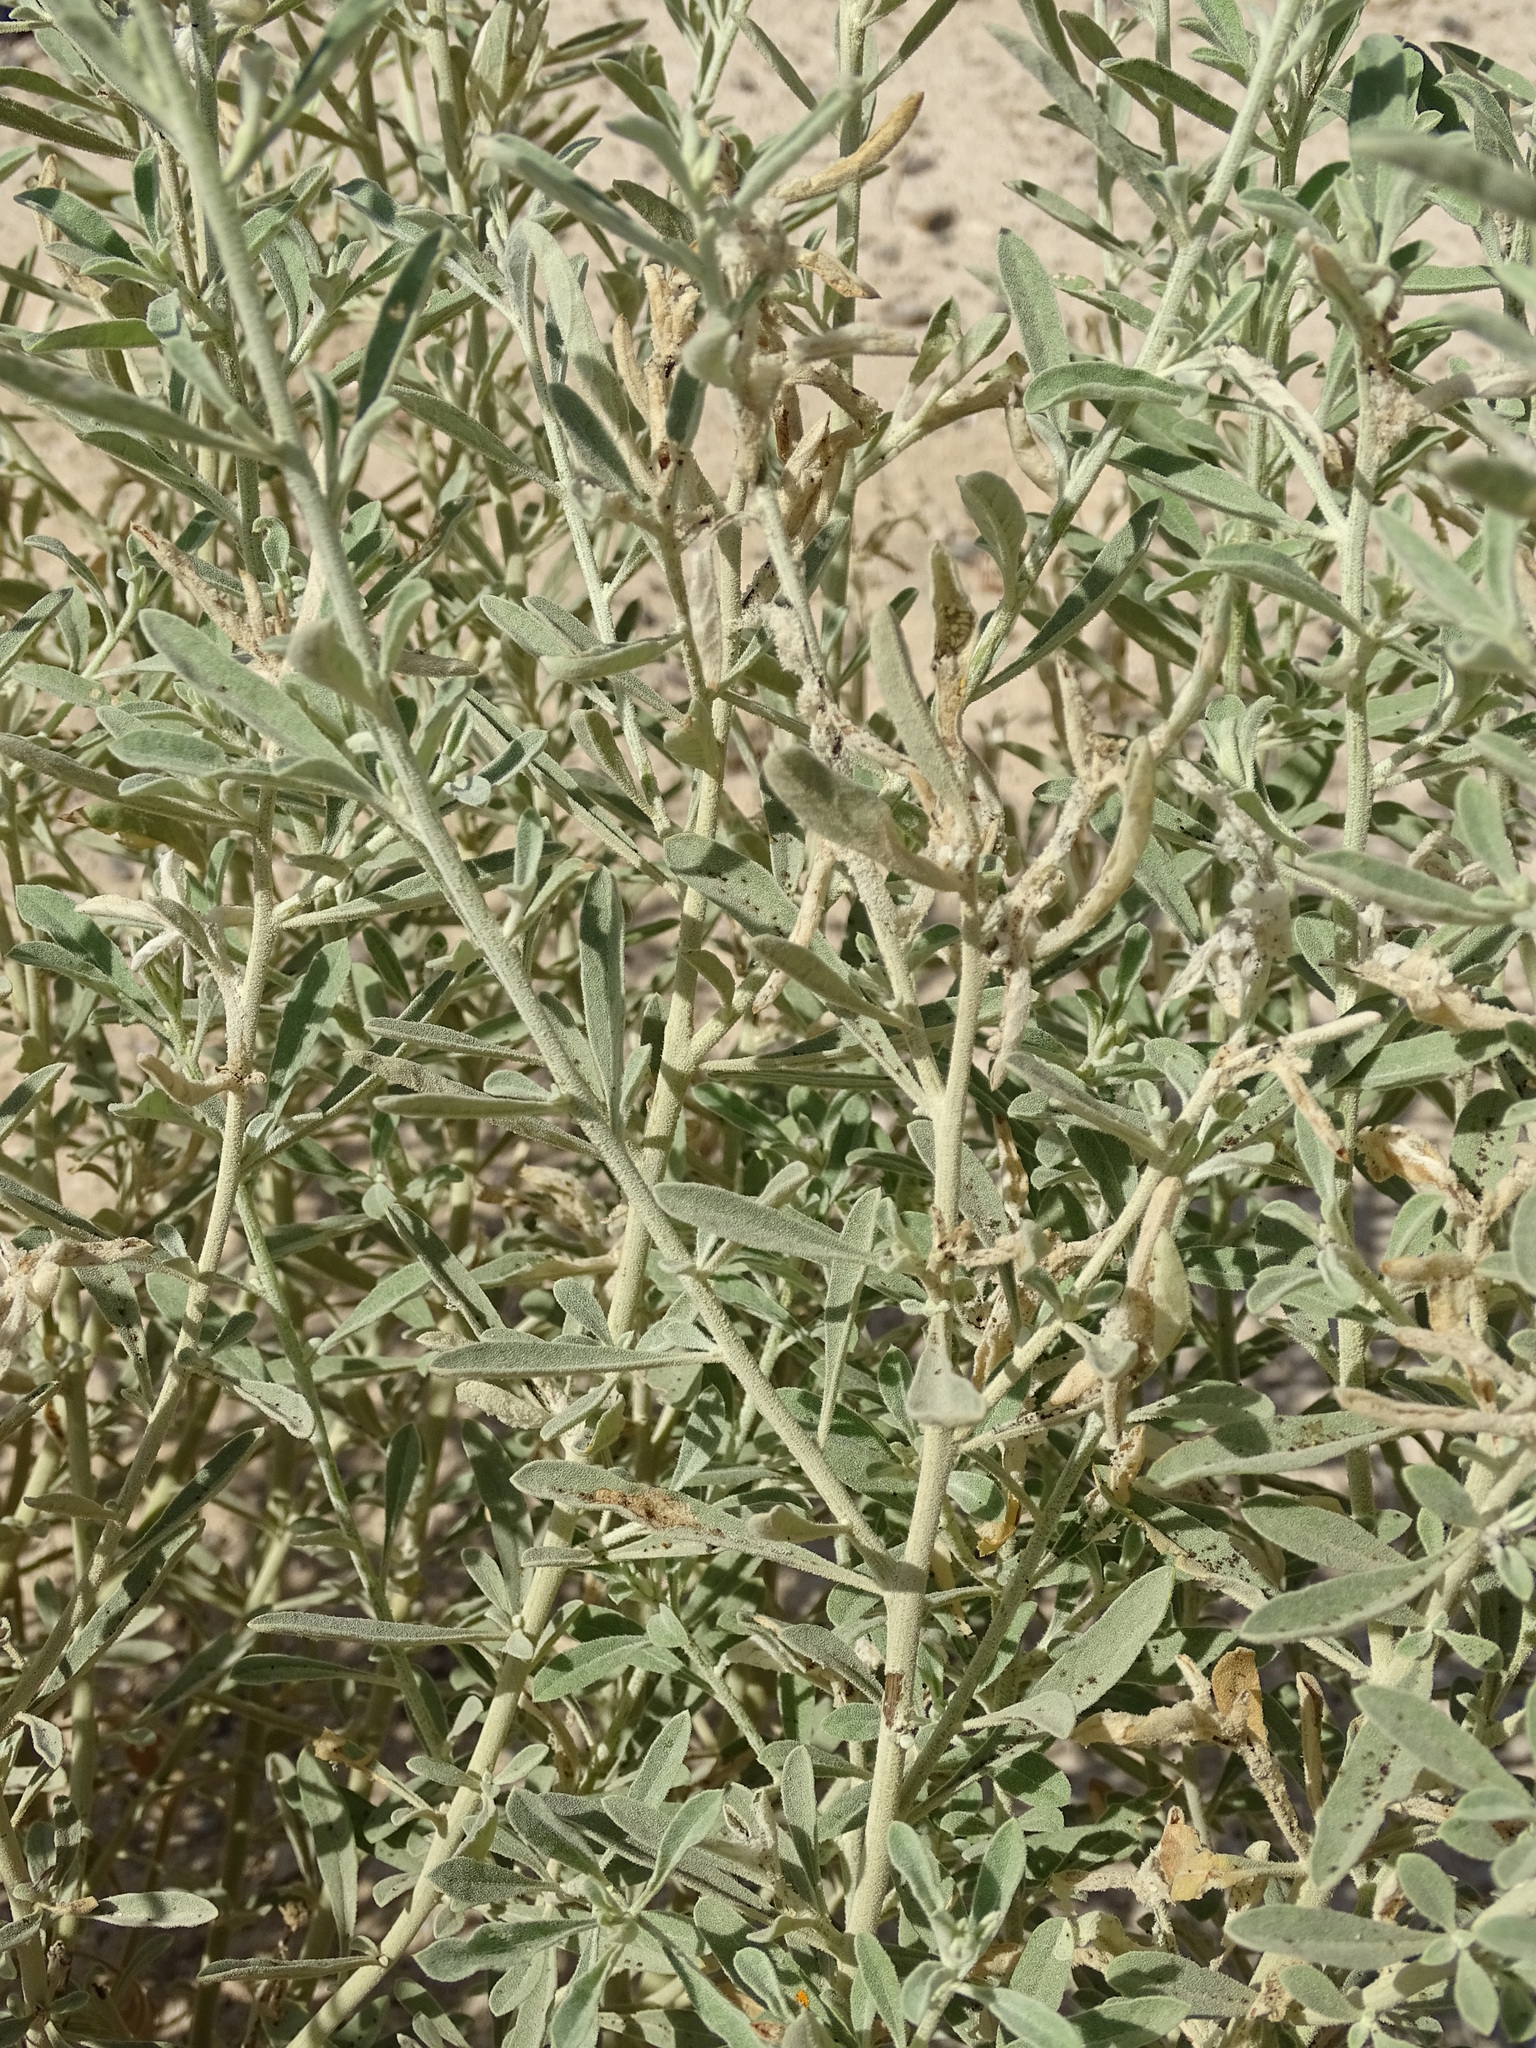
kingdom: Plantae
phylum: Tracheophyta
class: Magnoliopsida
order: Caryophyllales
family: Amaranthaceae
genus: Aerva
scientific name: Aerva javanica
